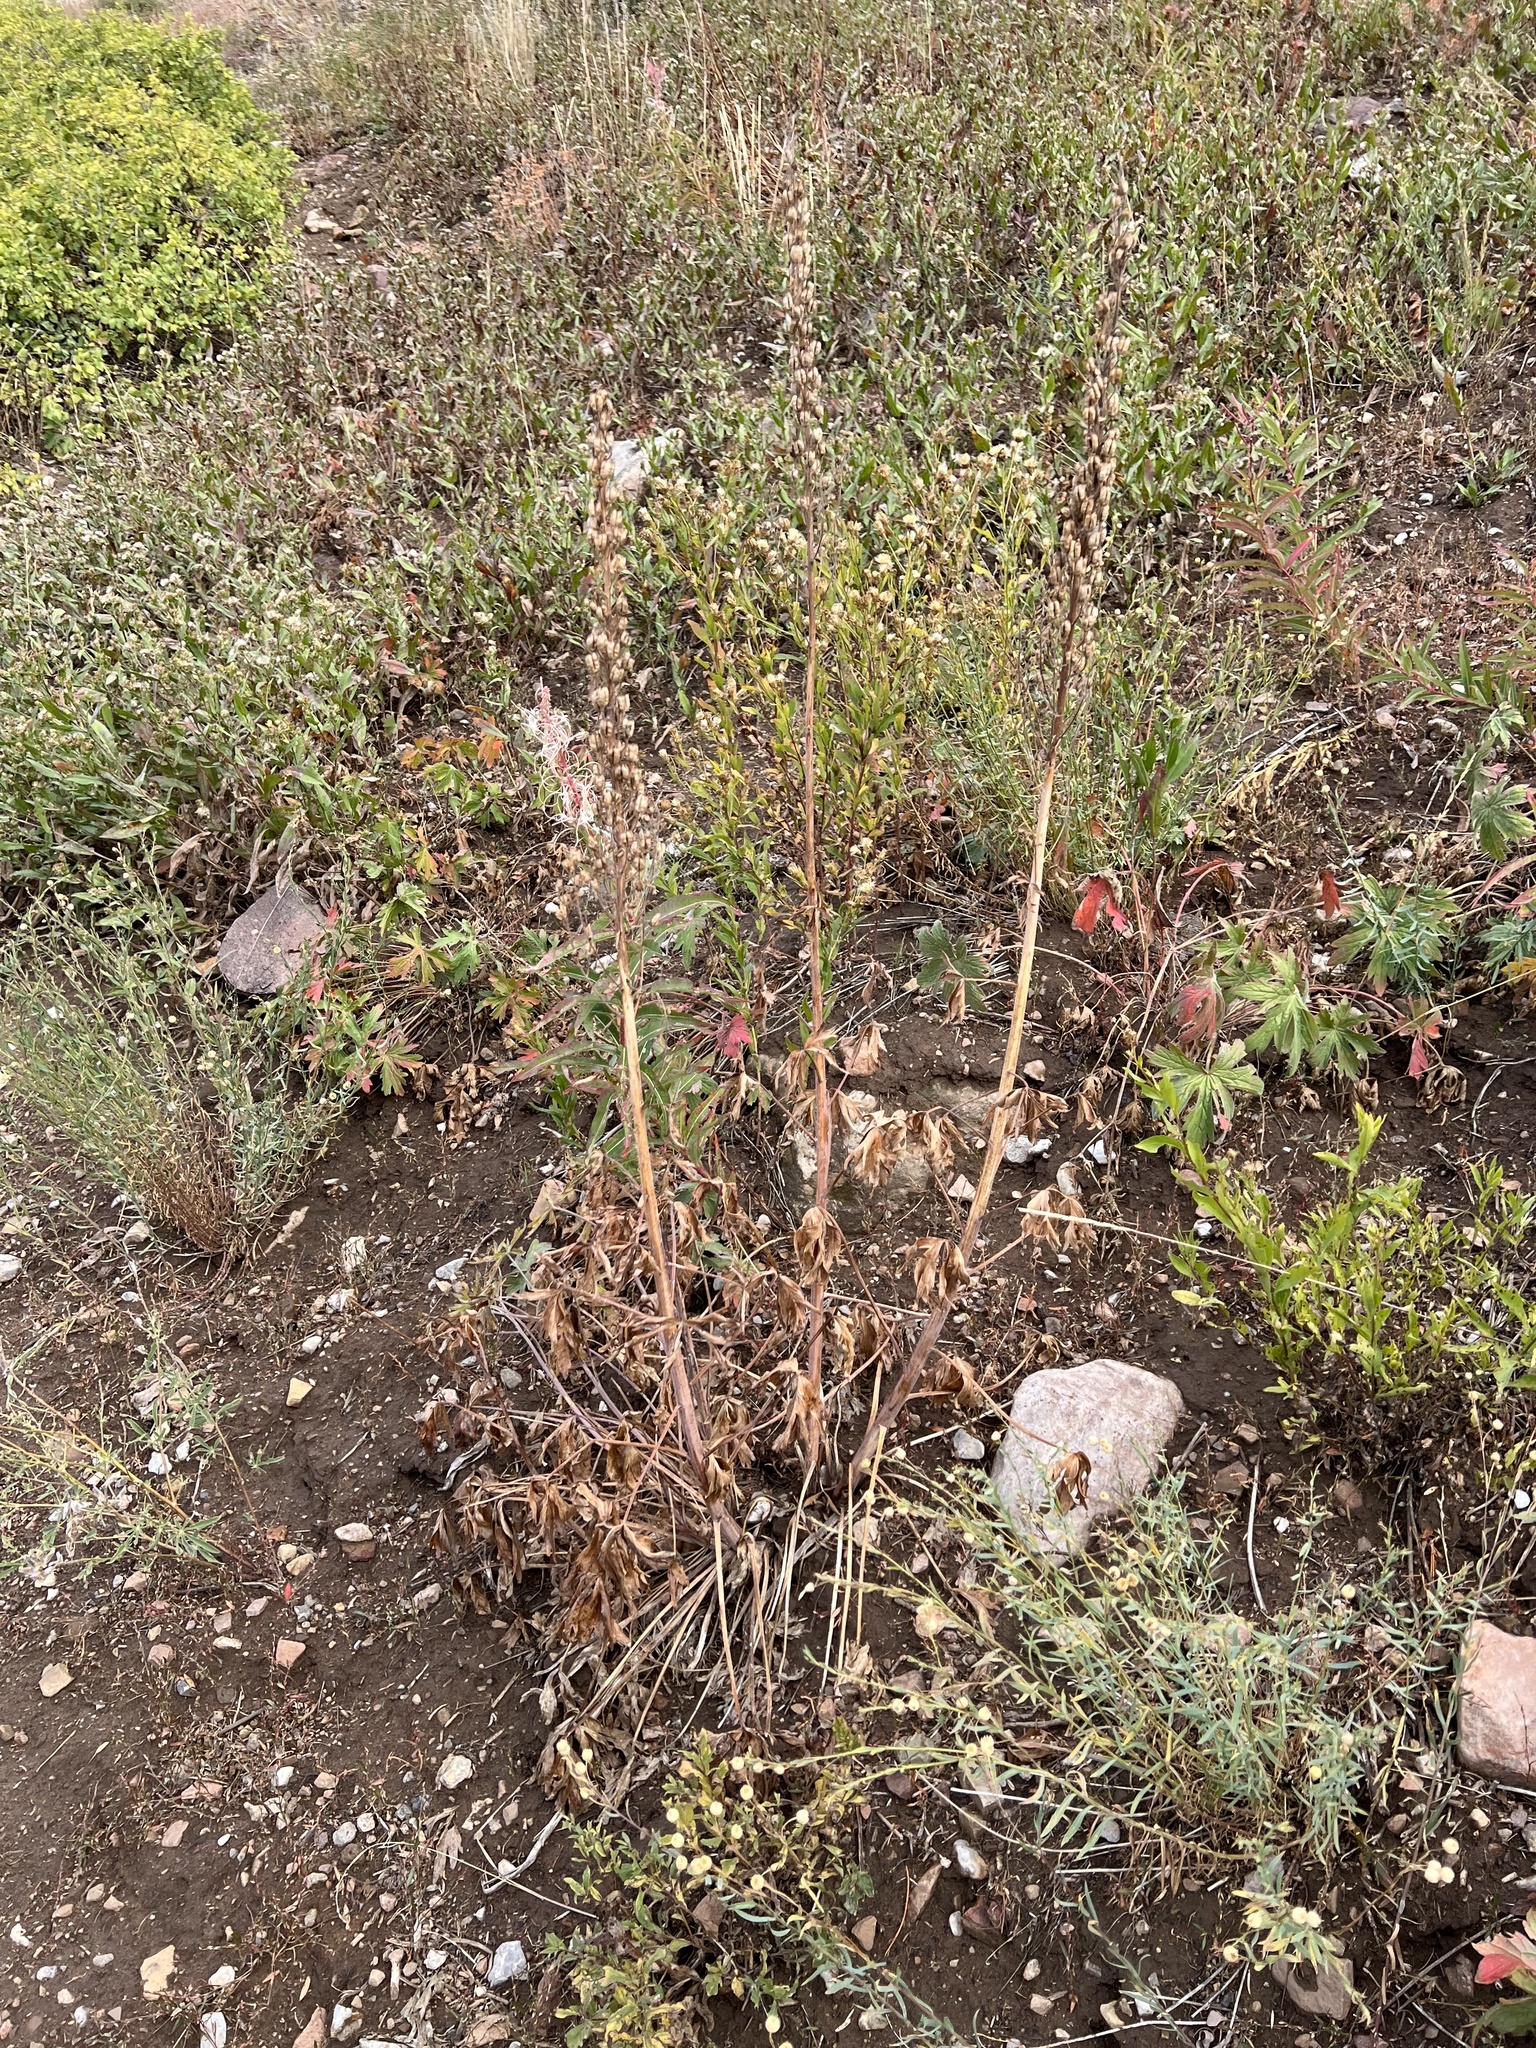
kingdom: Plantae
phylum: Tracheophyta
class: Magnoliopsida
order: Ranunculales
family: Ranunculaceae
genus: Delphinium
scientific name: Delphinium occidentale
